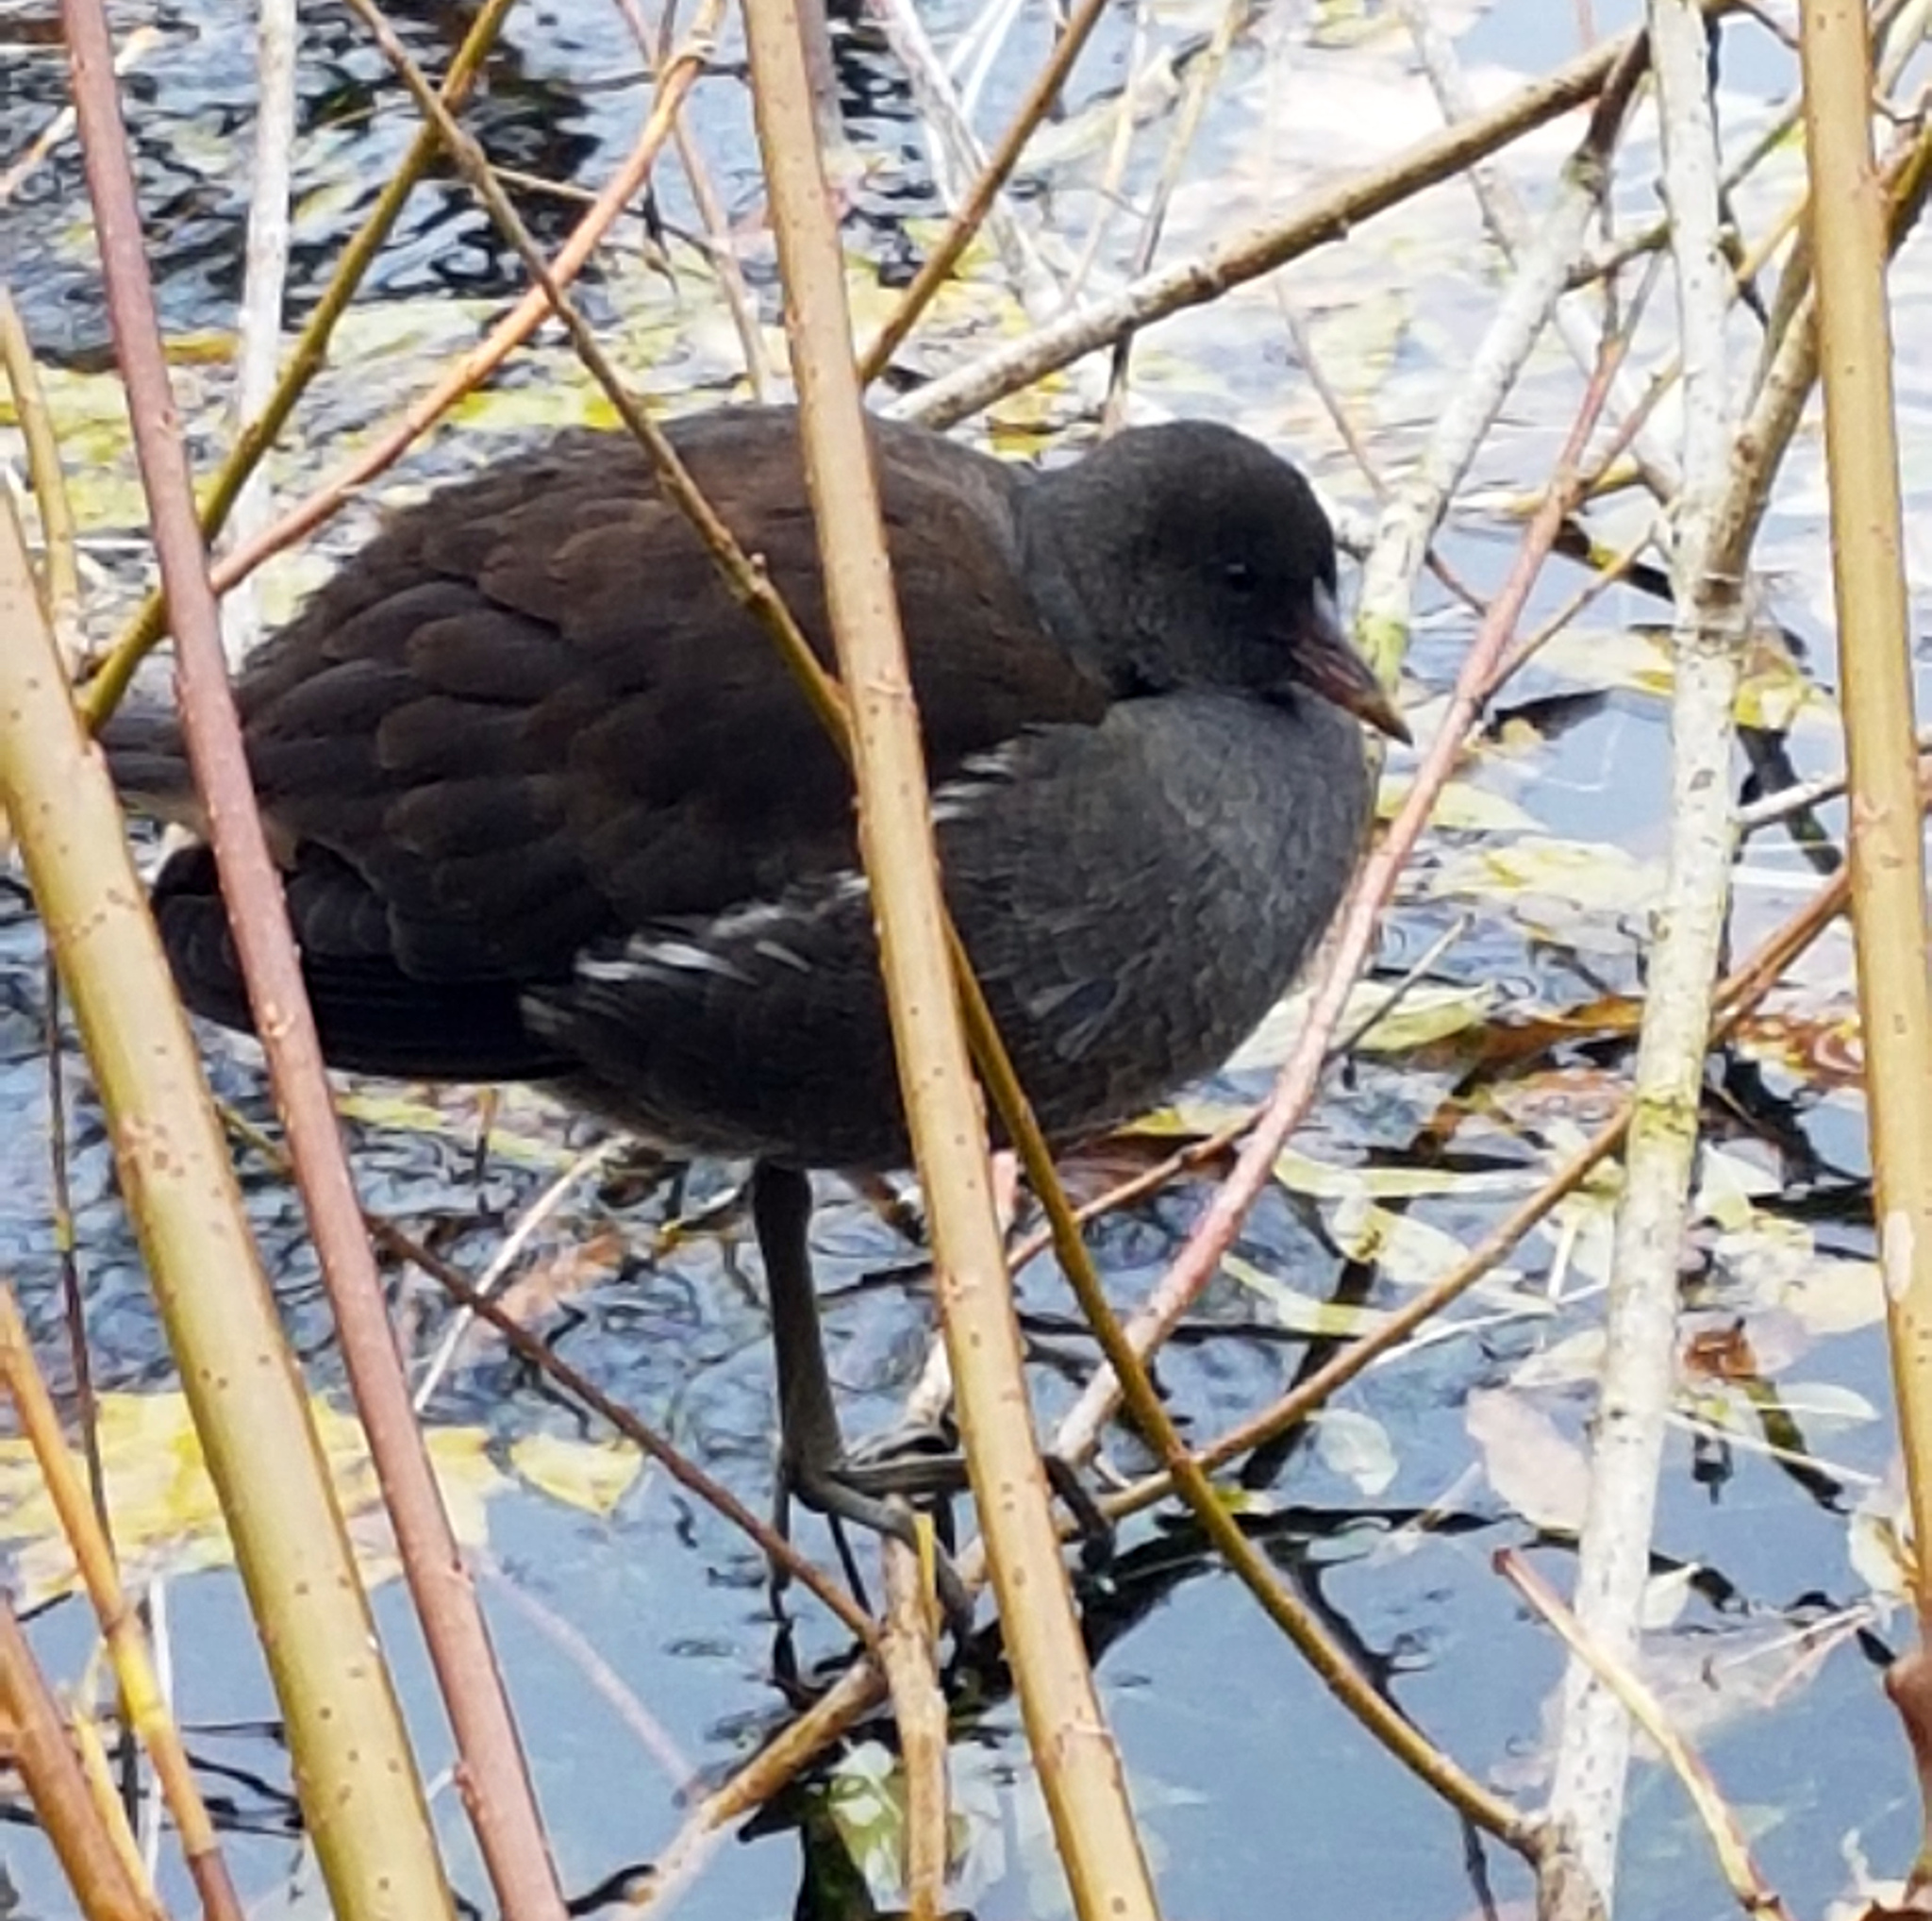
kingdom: Animalia
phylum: Chordata
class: Aves
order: Gruiformes
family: Rallidae
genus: Gallinula
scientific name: Gallinula chloropus
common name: Common moorhen
